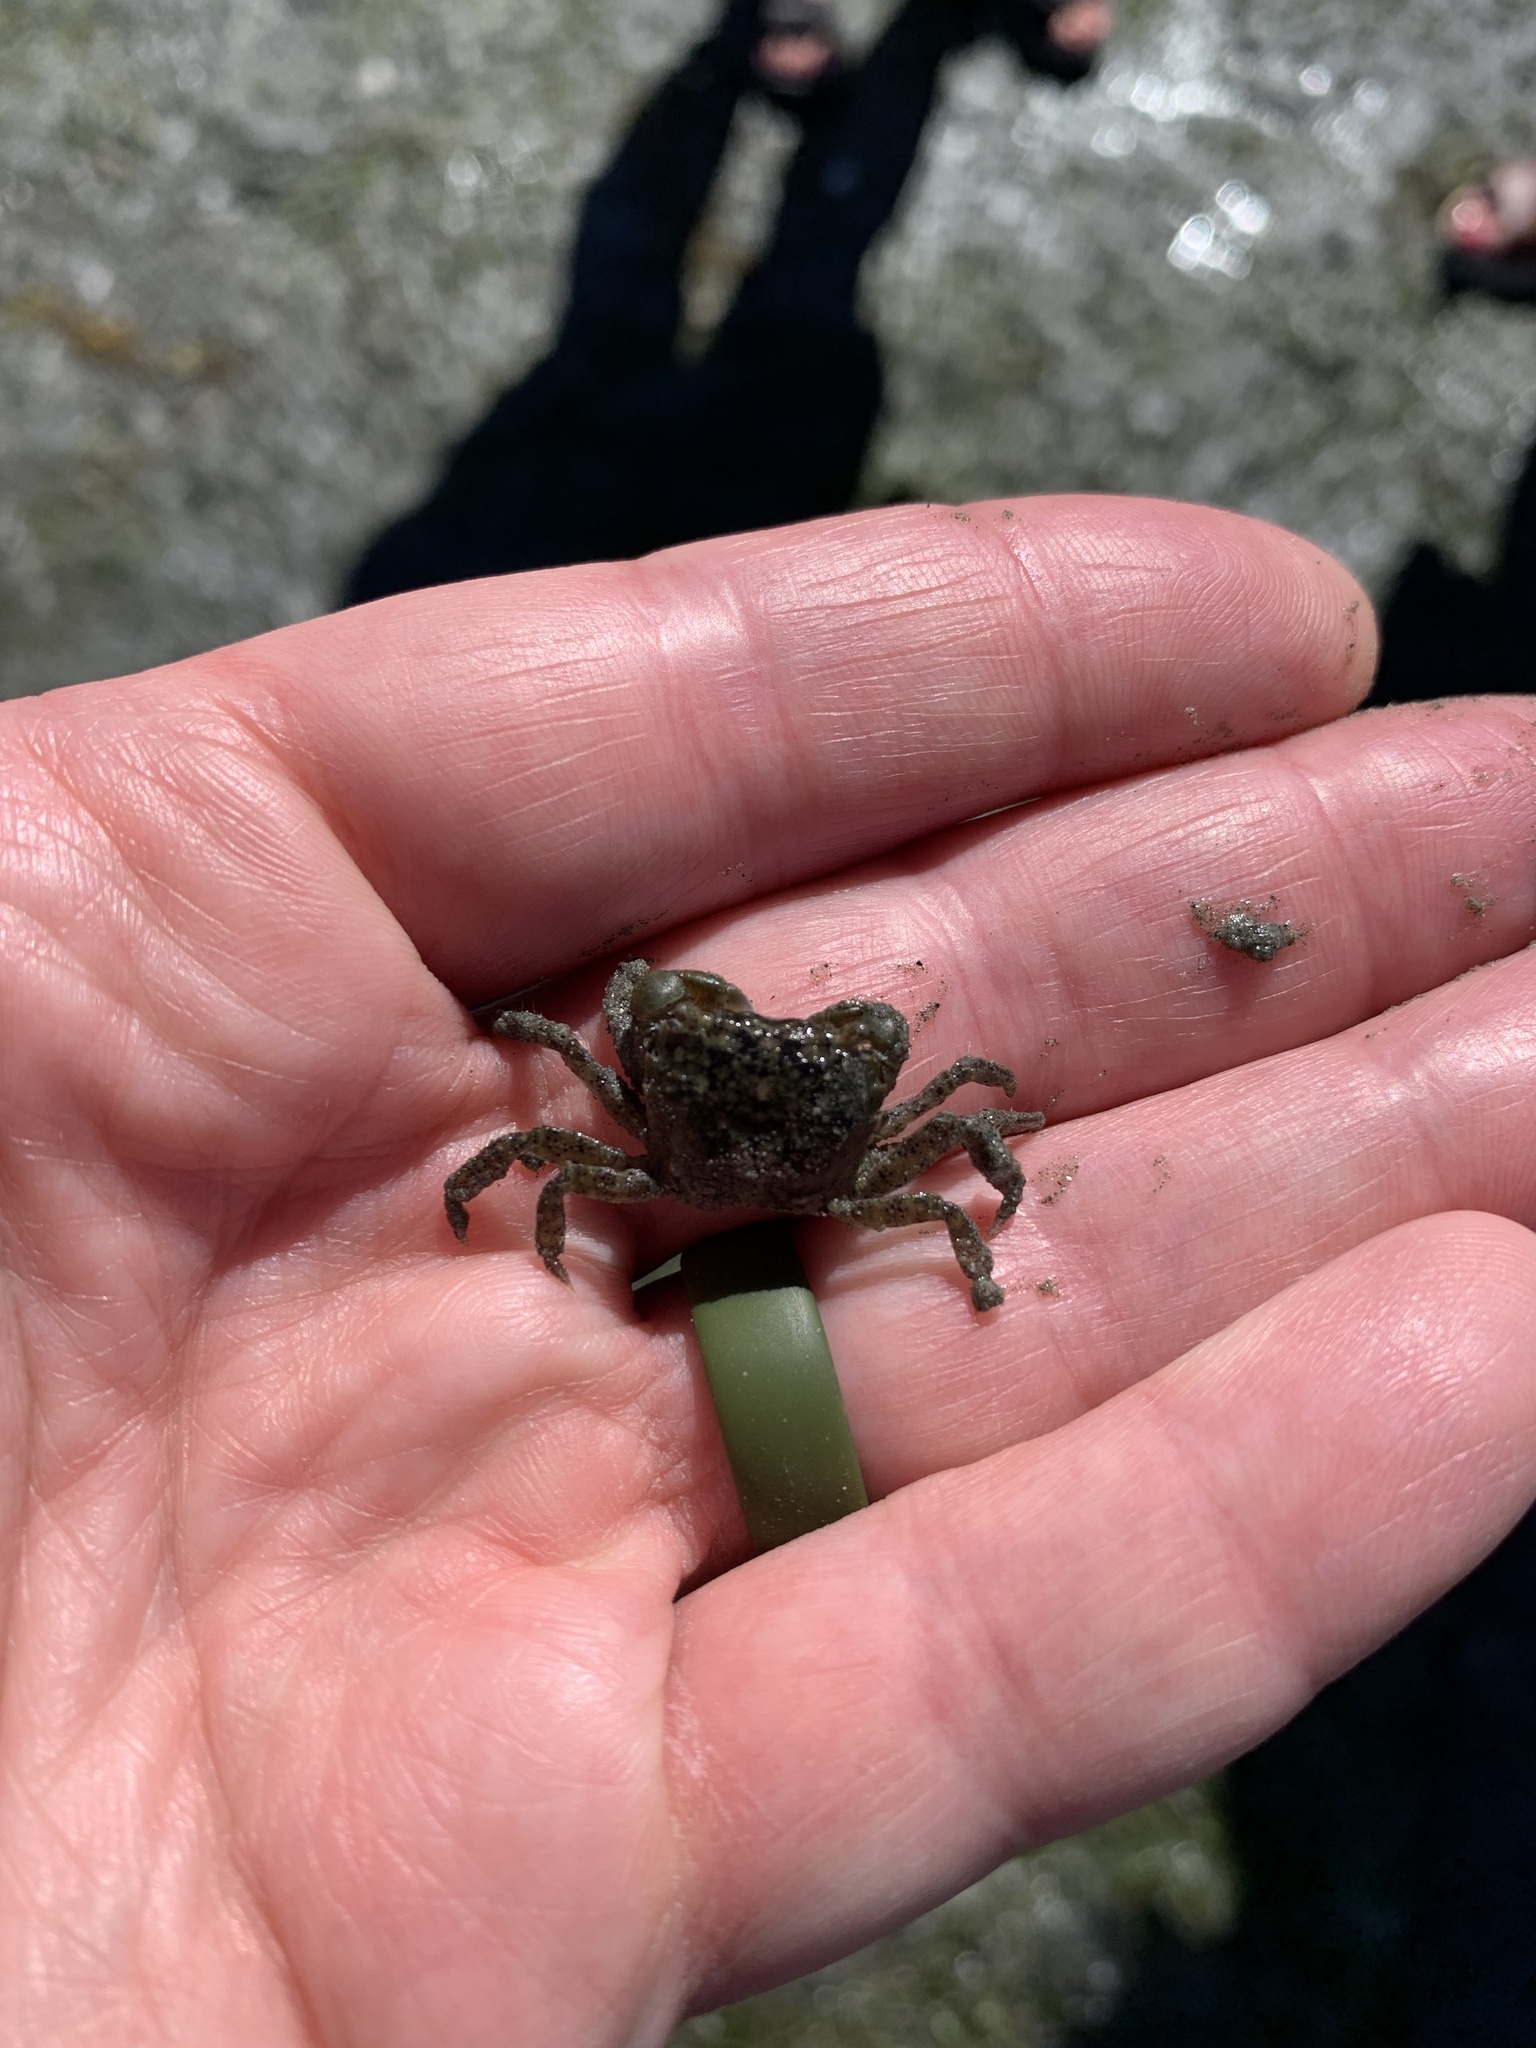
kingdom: Animalia
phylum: Arthropoda
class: Malacostraca
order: Decapoda
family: Varunidae
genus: Hemigrapsus
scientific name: Hemigrapsus oregonensis
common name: Yellow shore crab
